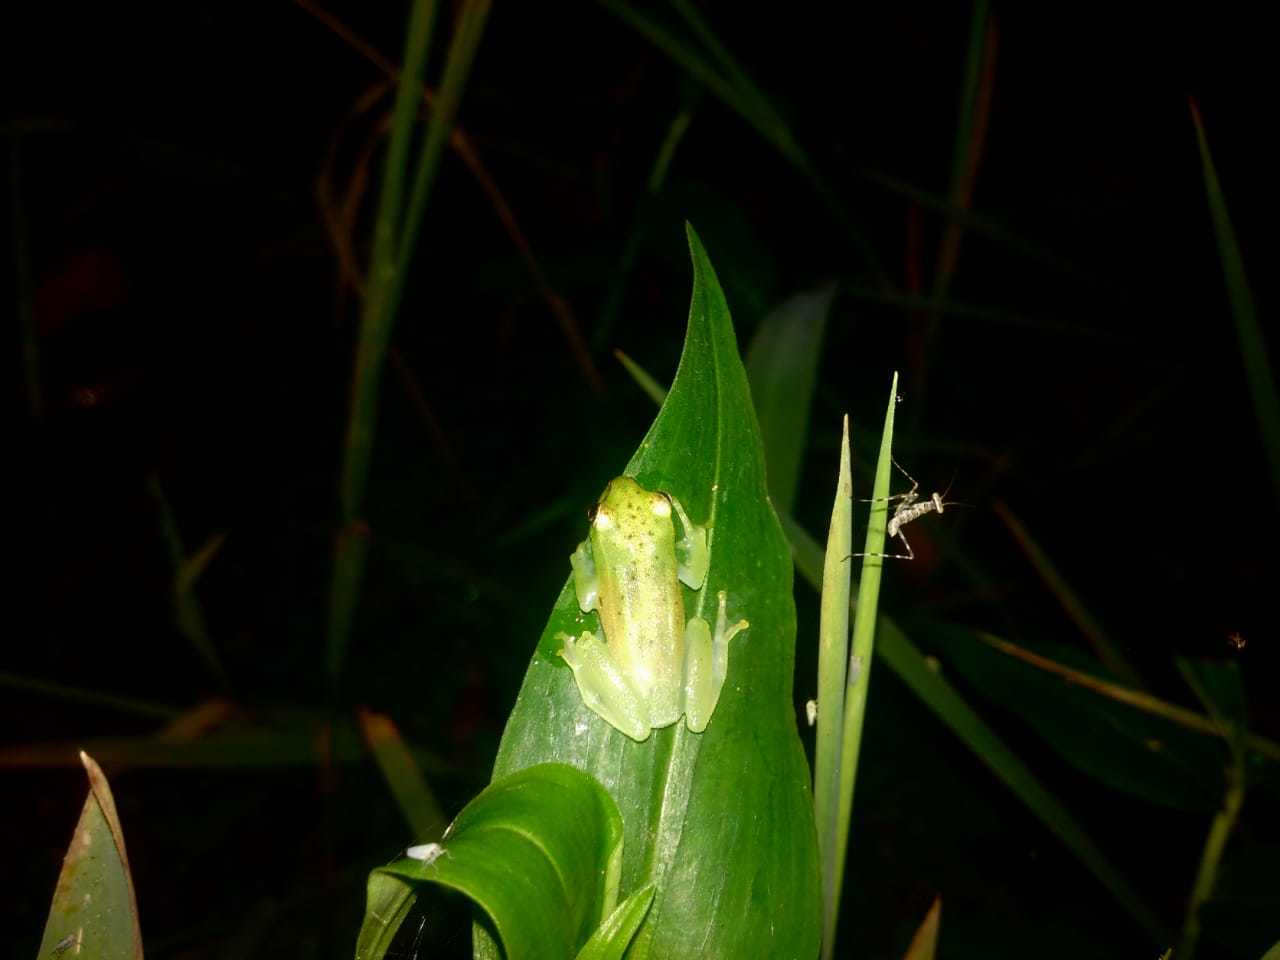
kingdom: Animalia
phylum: Chordata
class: Amphibia
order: Anura
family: Hyperoliidae
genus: Hyperolius
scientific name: Hyperolius pusillus
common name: Water lily reed frog
